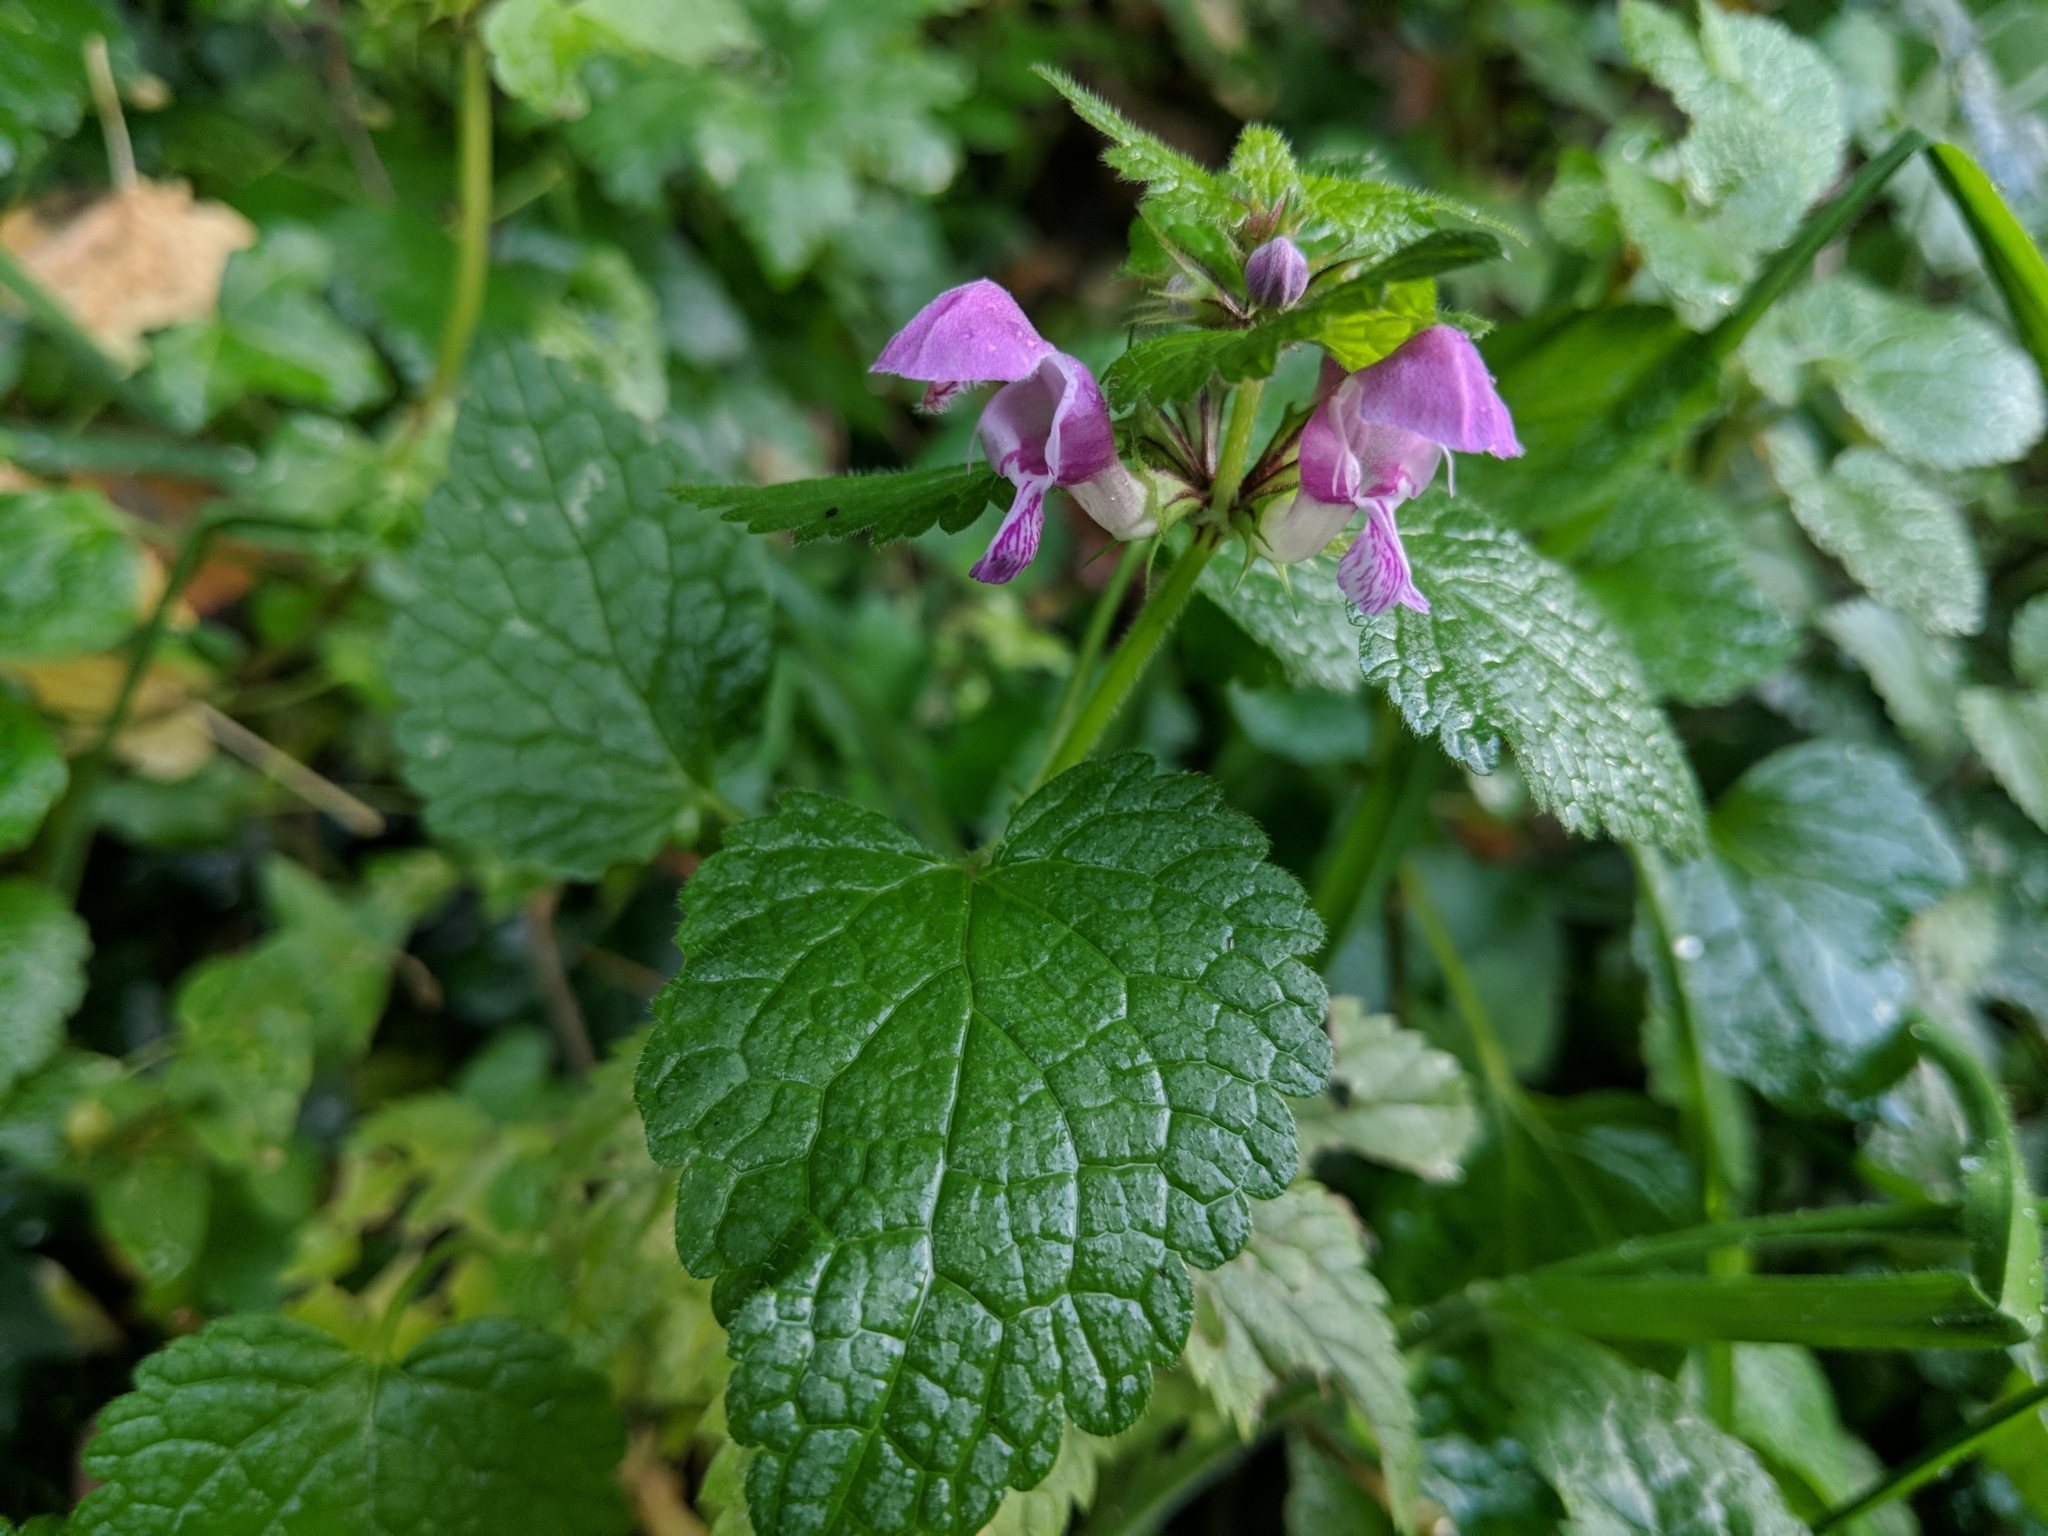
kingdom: Plantae
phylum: Tracheophyta
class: Magnoliopsida
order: Lamiales
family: Lamiaceae
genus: Lamium
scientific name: Lamium maculatum
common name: Spotted dead-nettle
